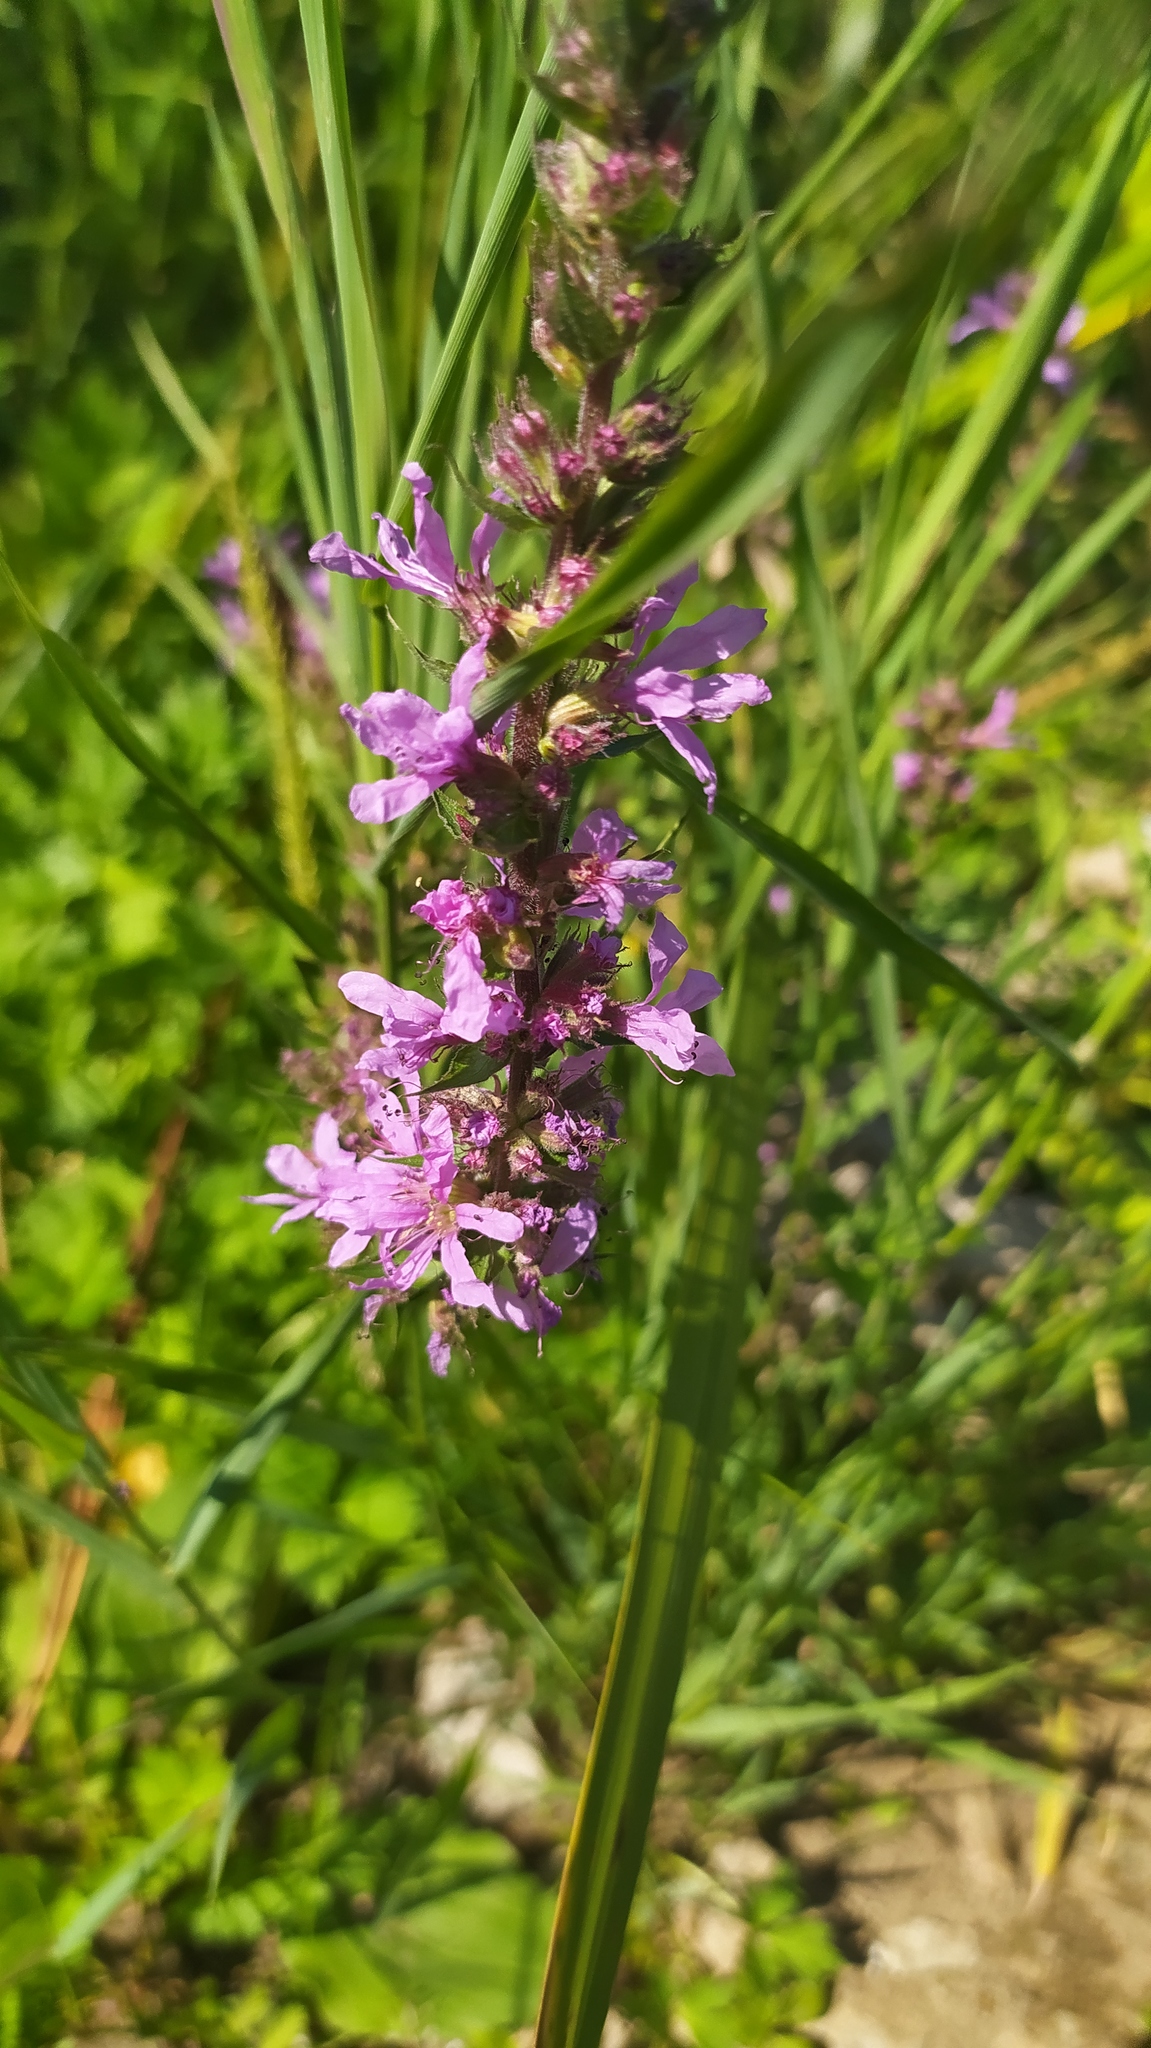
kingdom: Plantae
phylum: Tracheophyta
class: Magnoliopsida
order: Myrtales
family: Lythraceae
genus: Lythrum
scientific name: Lythrum salicaria
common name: Purple loosestrife
